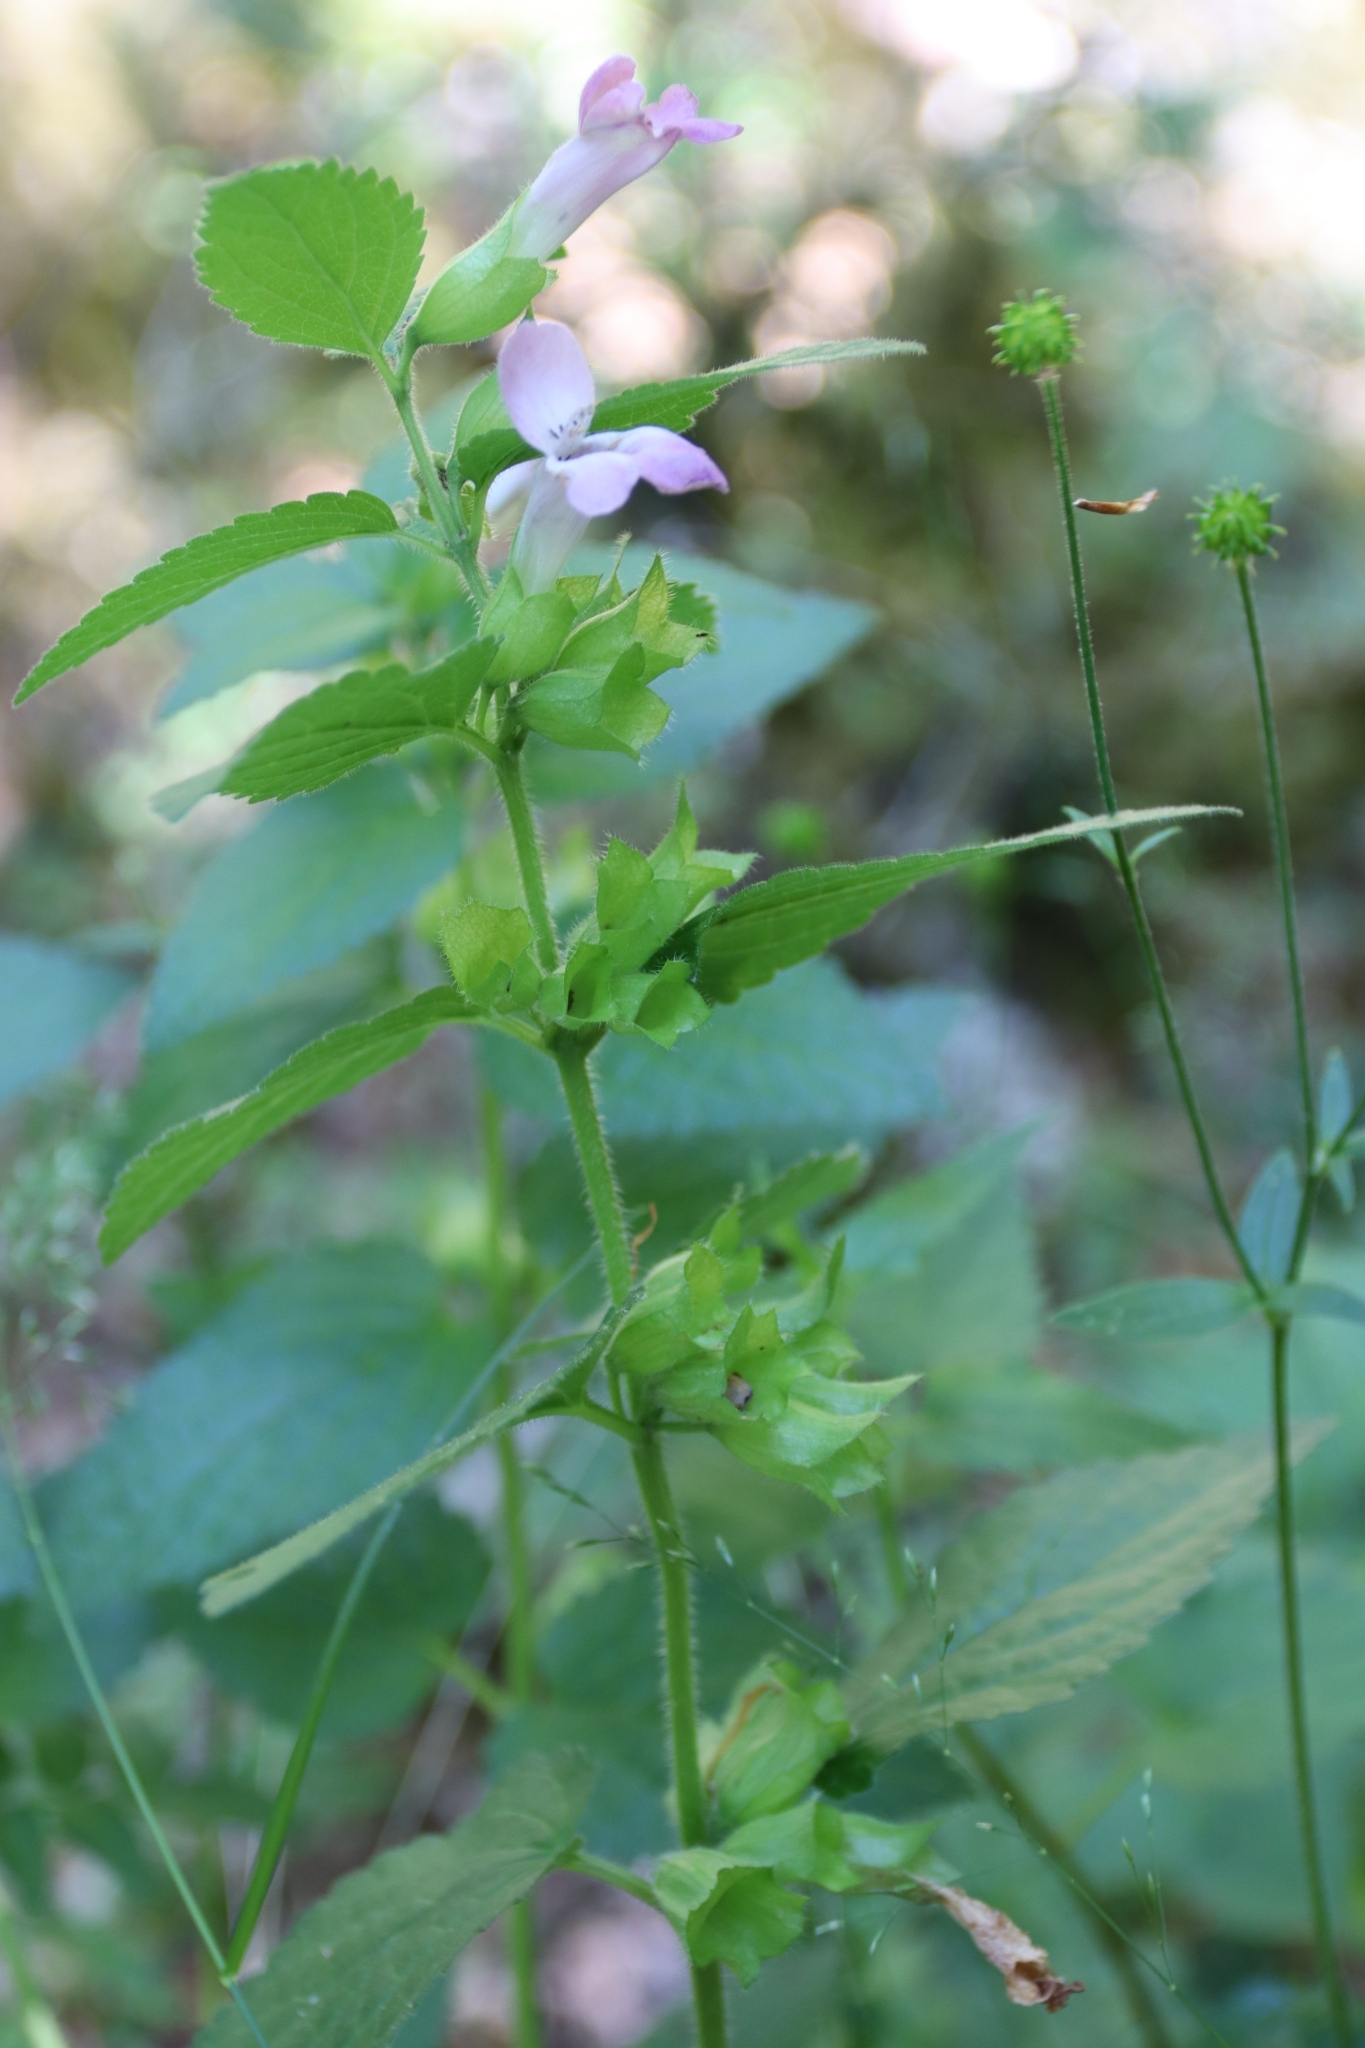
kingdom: Plantae
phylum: Tracheophyta
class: Magnoliopsida
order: Lamiales
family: Lamiaceae
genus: Melittis
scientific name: Melittis melissophyllum
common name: Bastard balm
